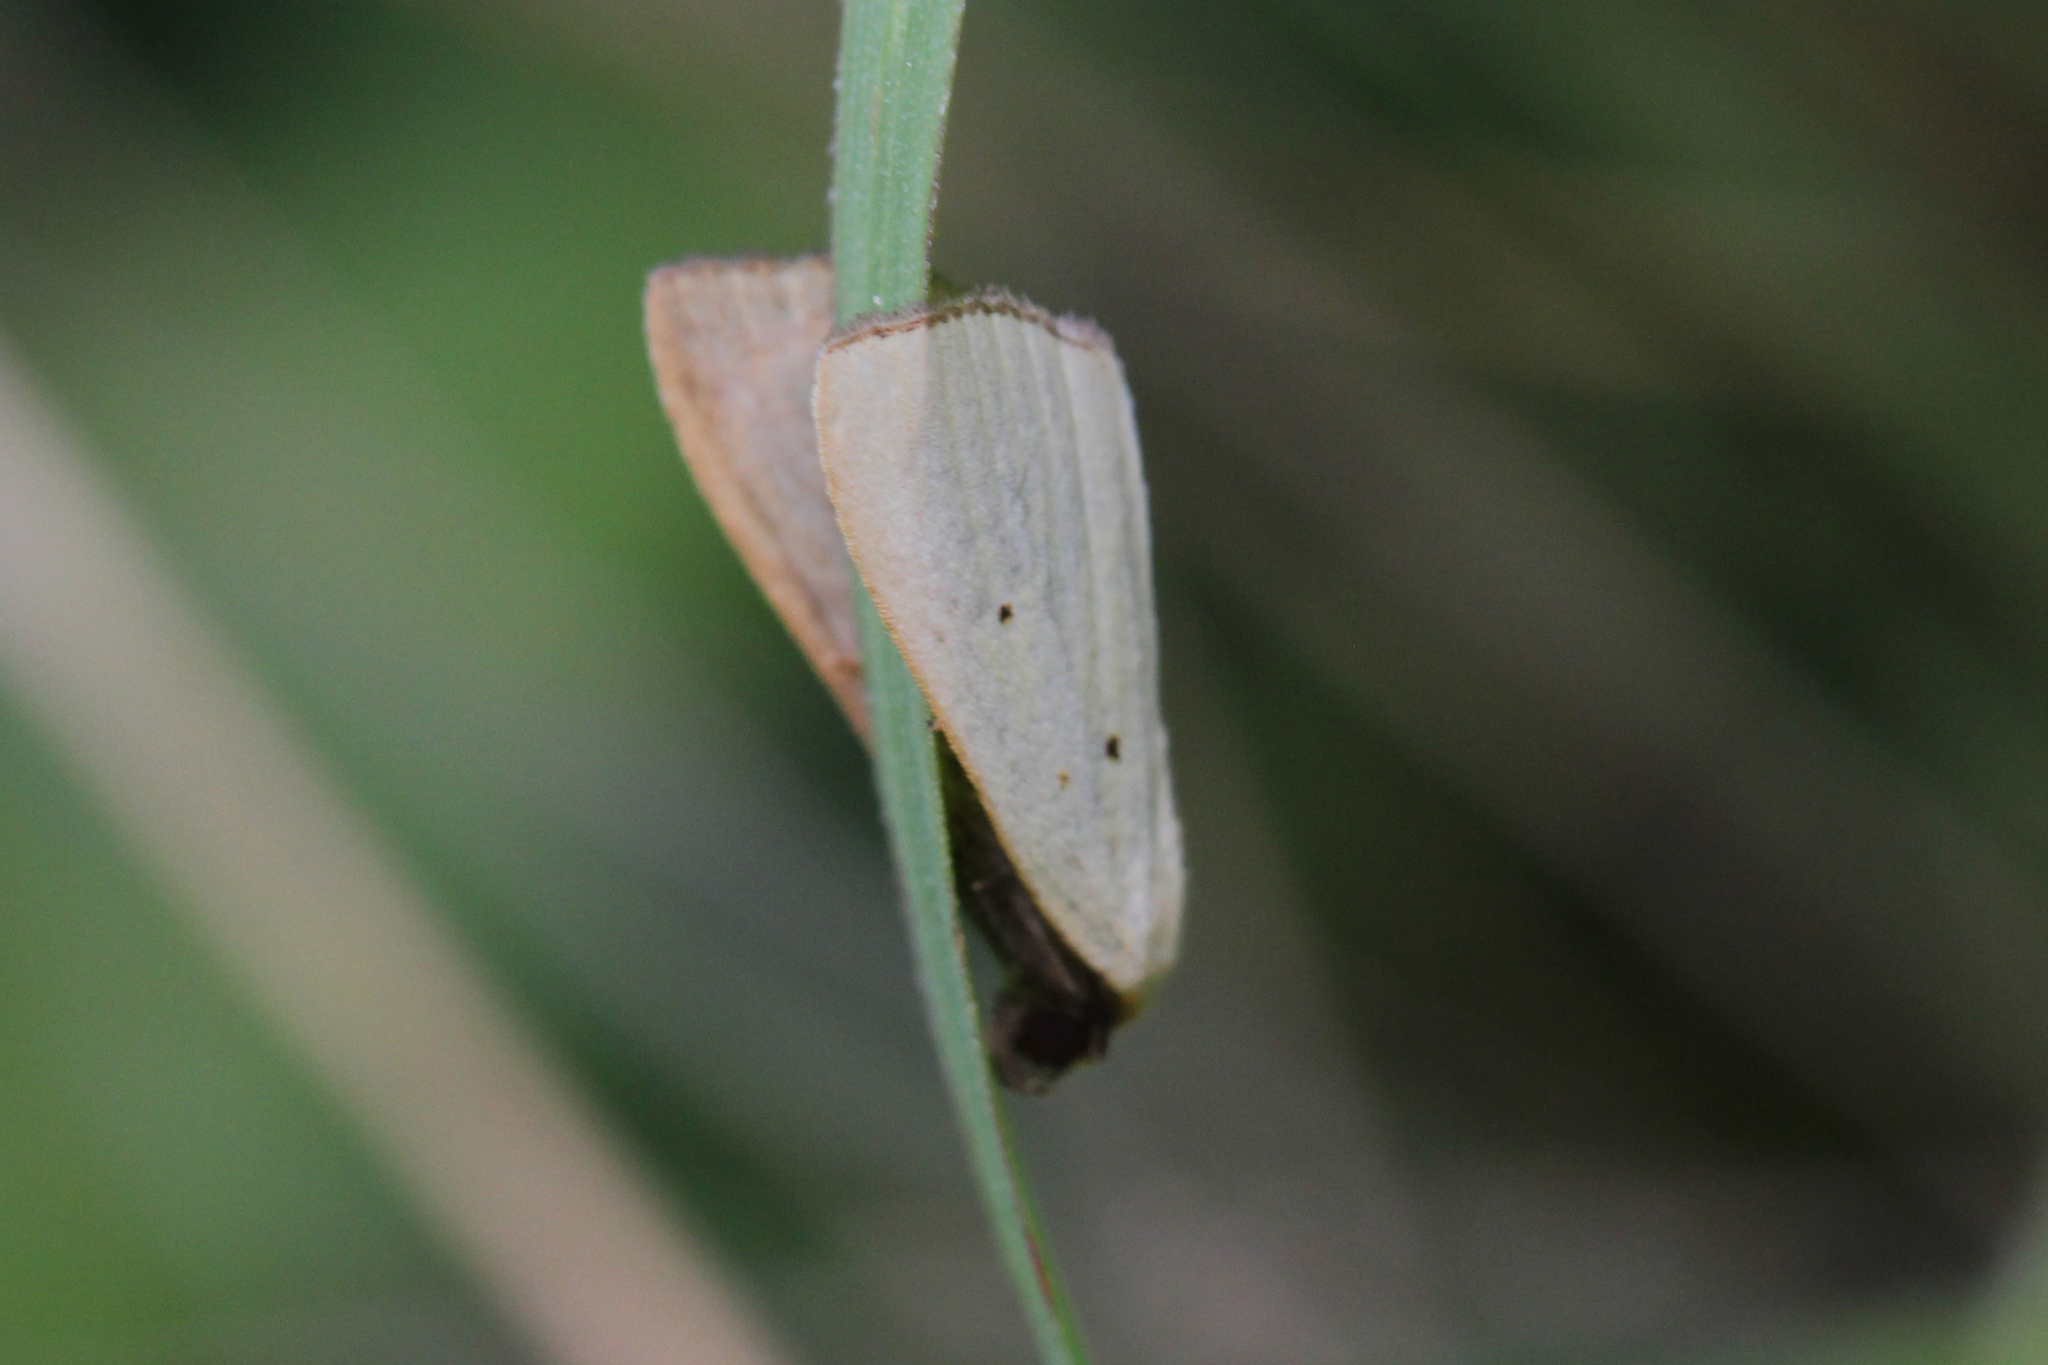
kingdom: Animalia
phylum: Arthropoda
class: Insecta
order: Lepidoptera
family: Noctuidae
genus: Marimatha
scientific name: Marimatha nigrofimbria
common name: Black-bordered lemon moth
